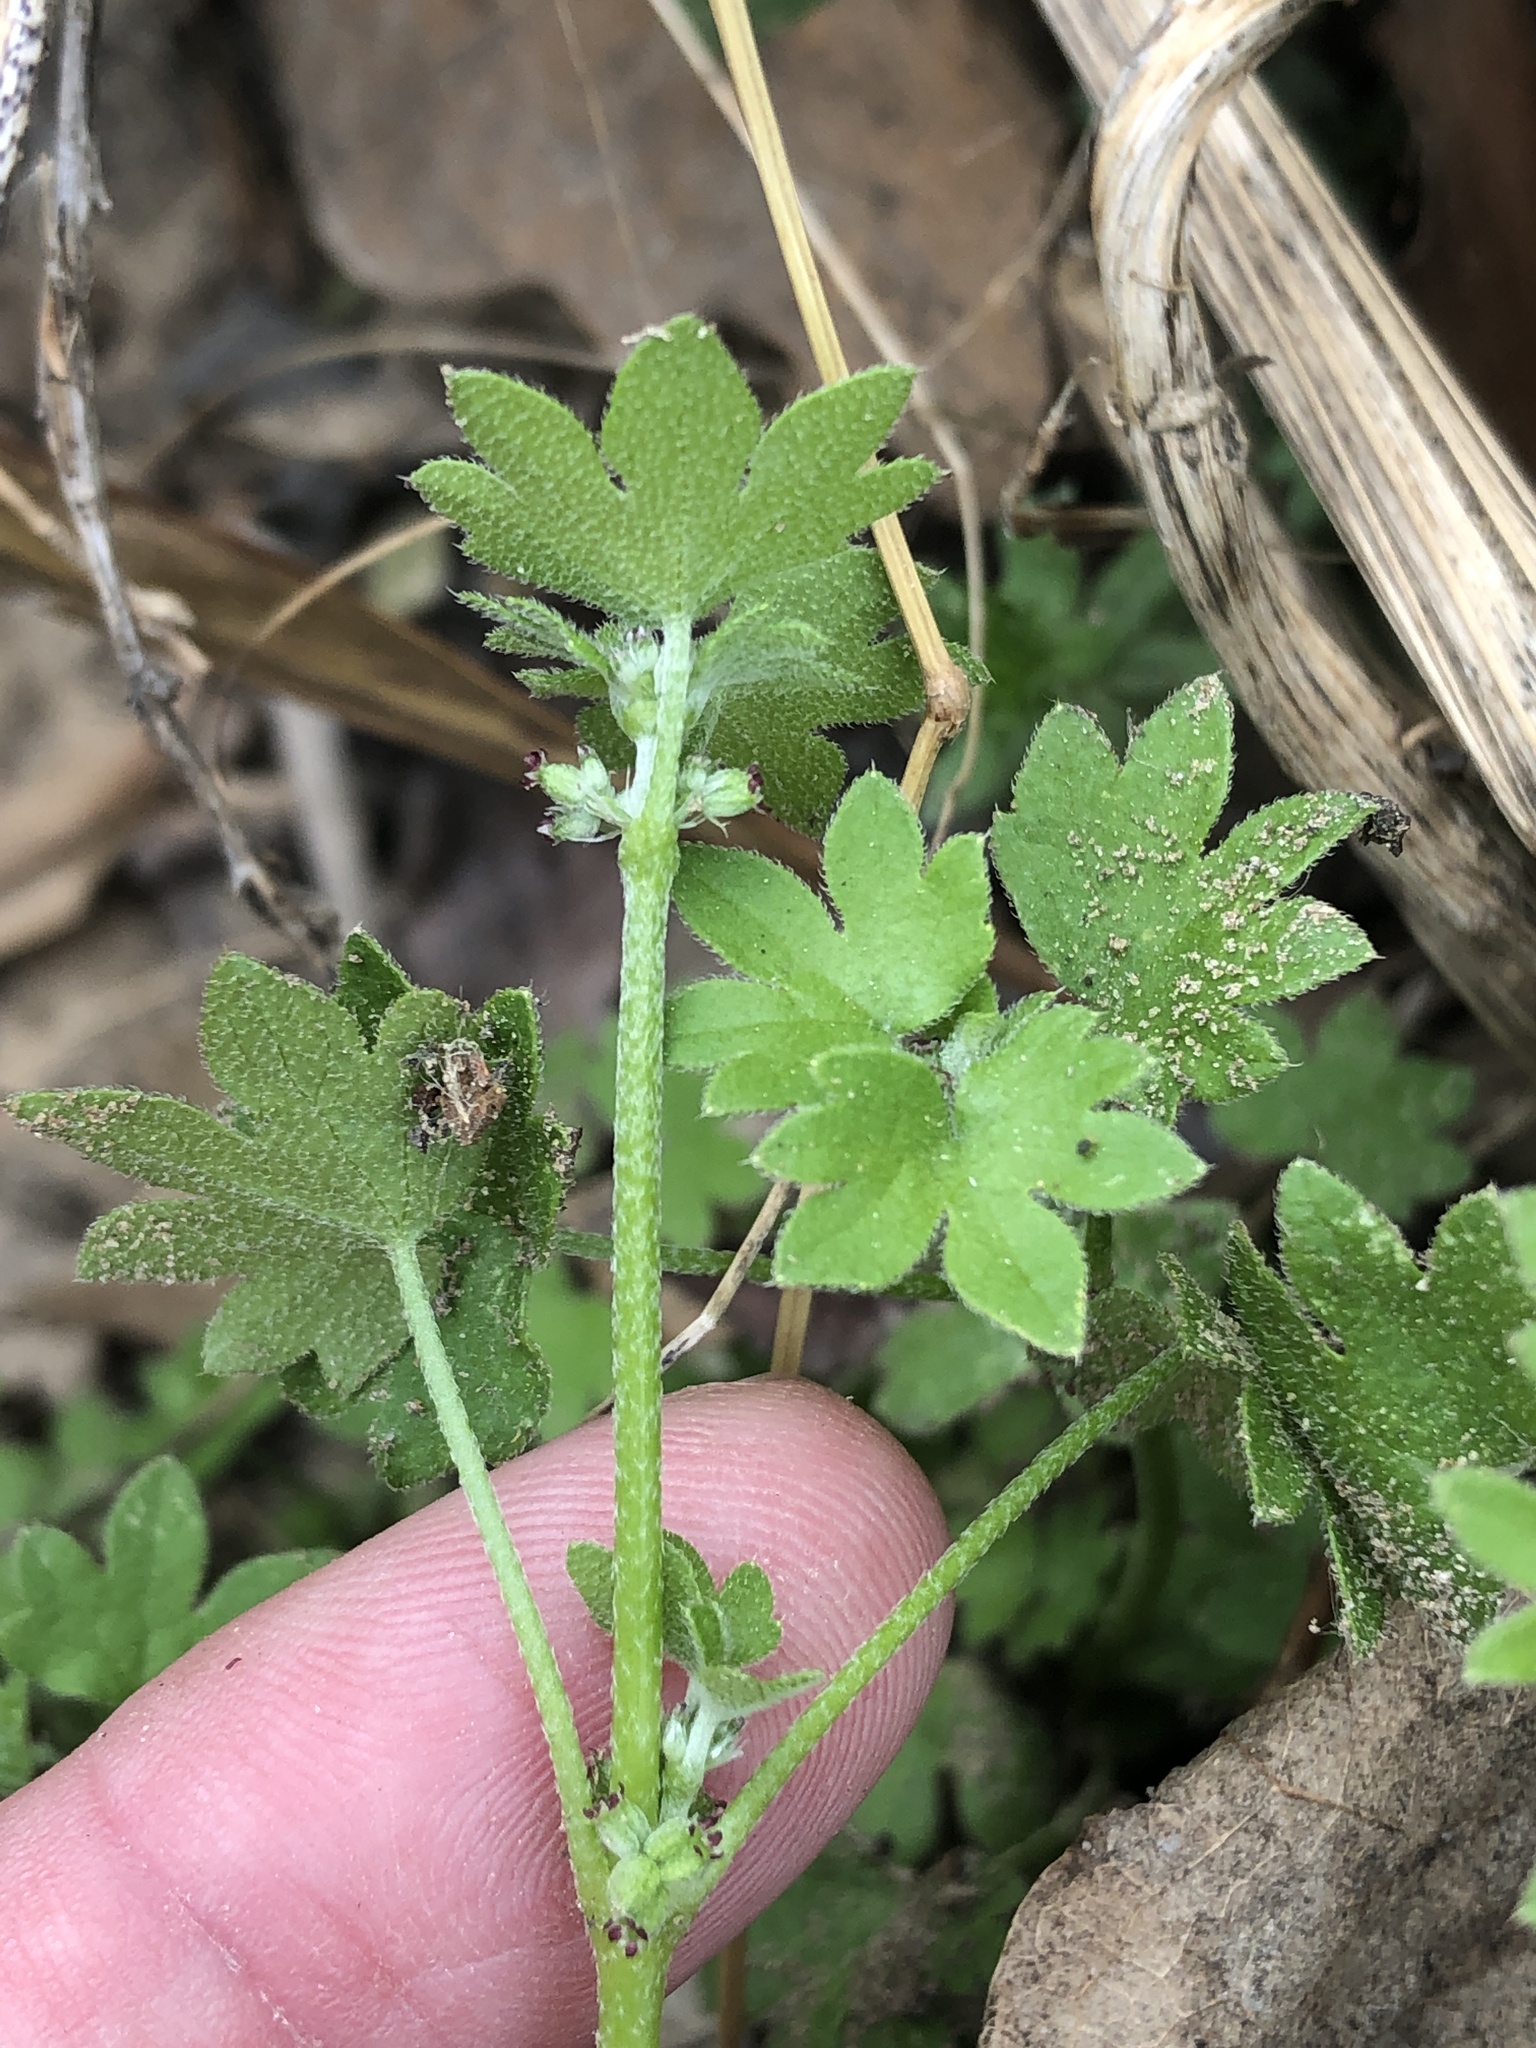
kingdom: Plantae
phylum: Tracheophyta
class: Magnoliopsida
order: Apiales
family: Apiaceae
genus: Bowlesia
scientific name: Bowlesia incana
